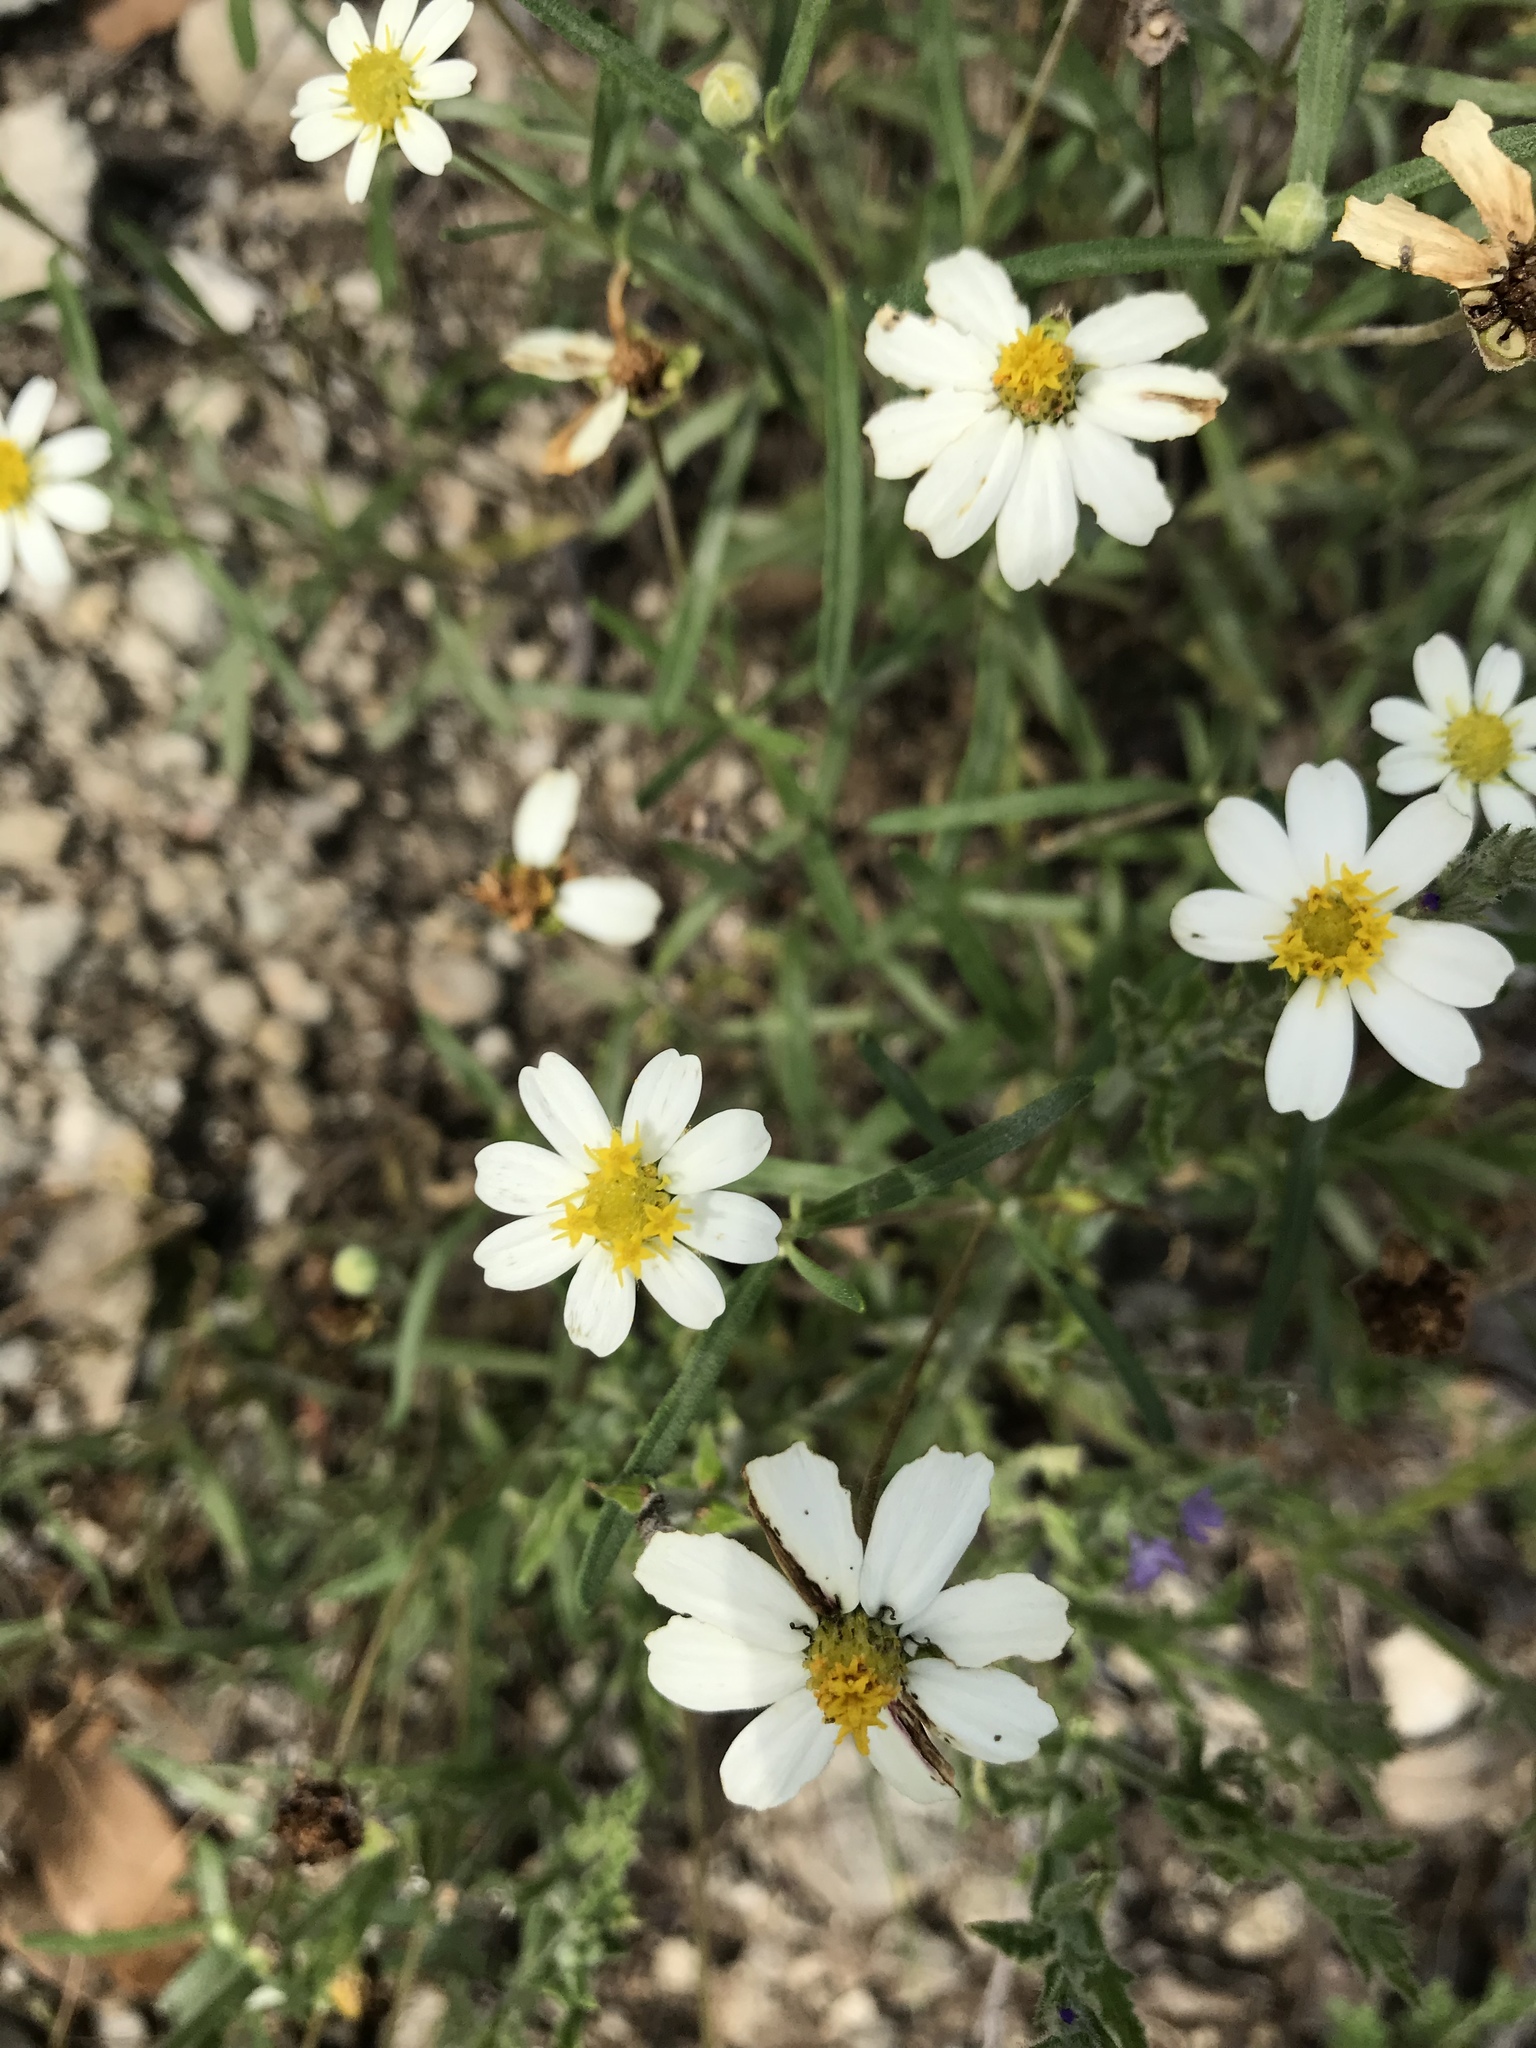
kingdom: Plantae
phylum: Tracheophyta
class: Magnoliopsida
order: Asterales
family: Asteraceae
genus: Melampodium
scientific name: Melampodium leucanthum
